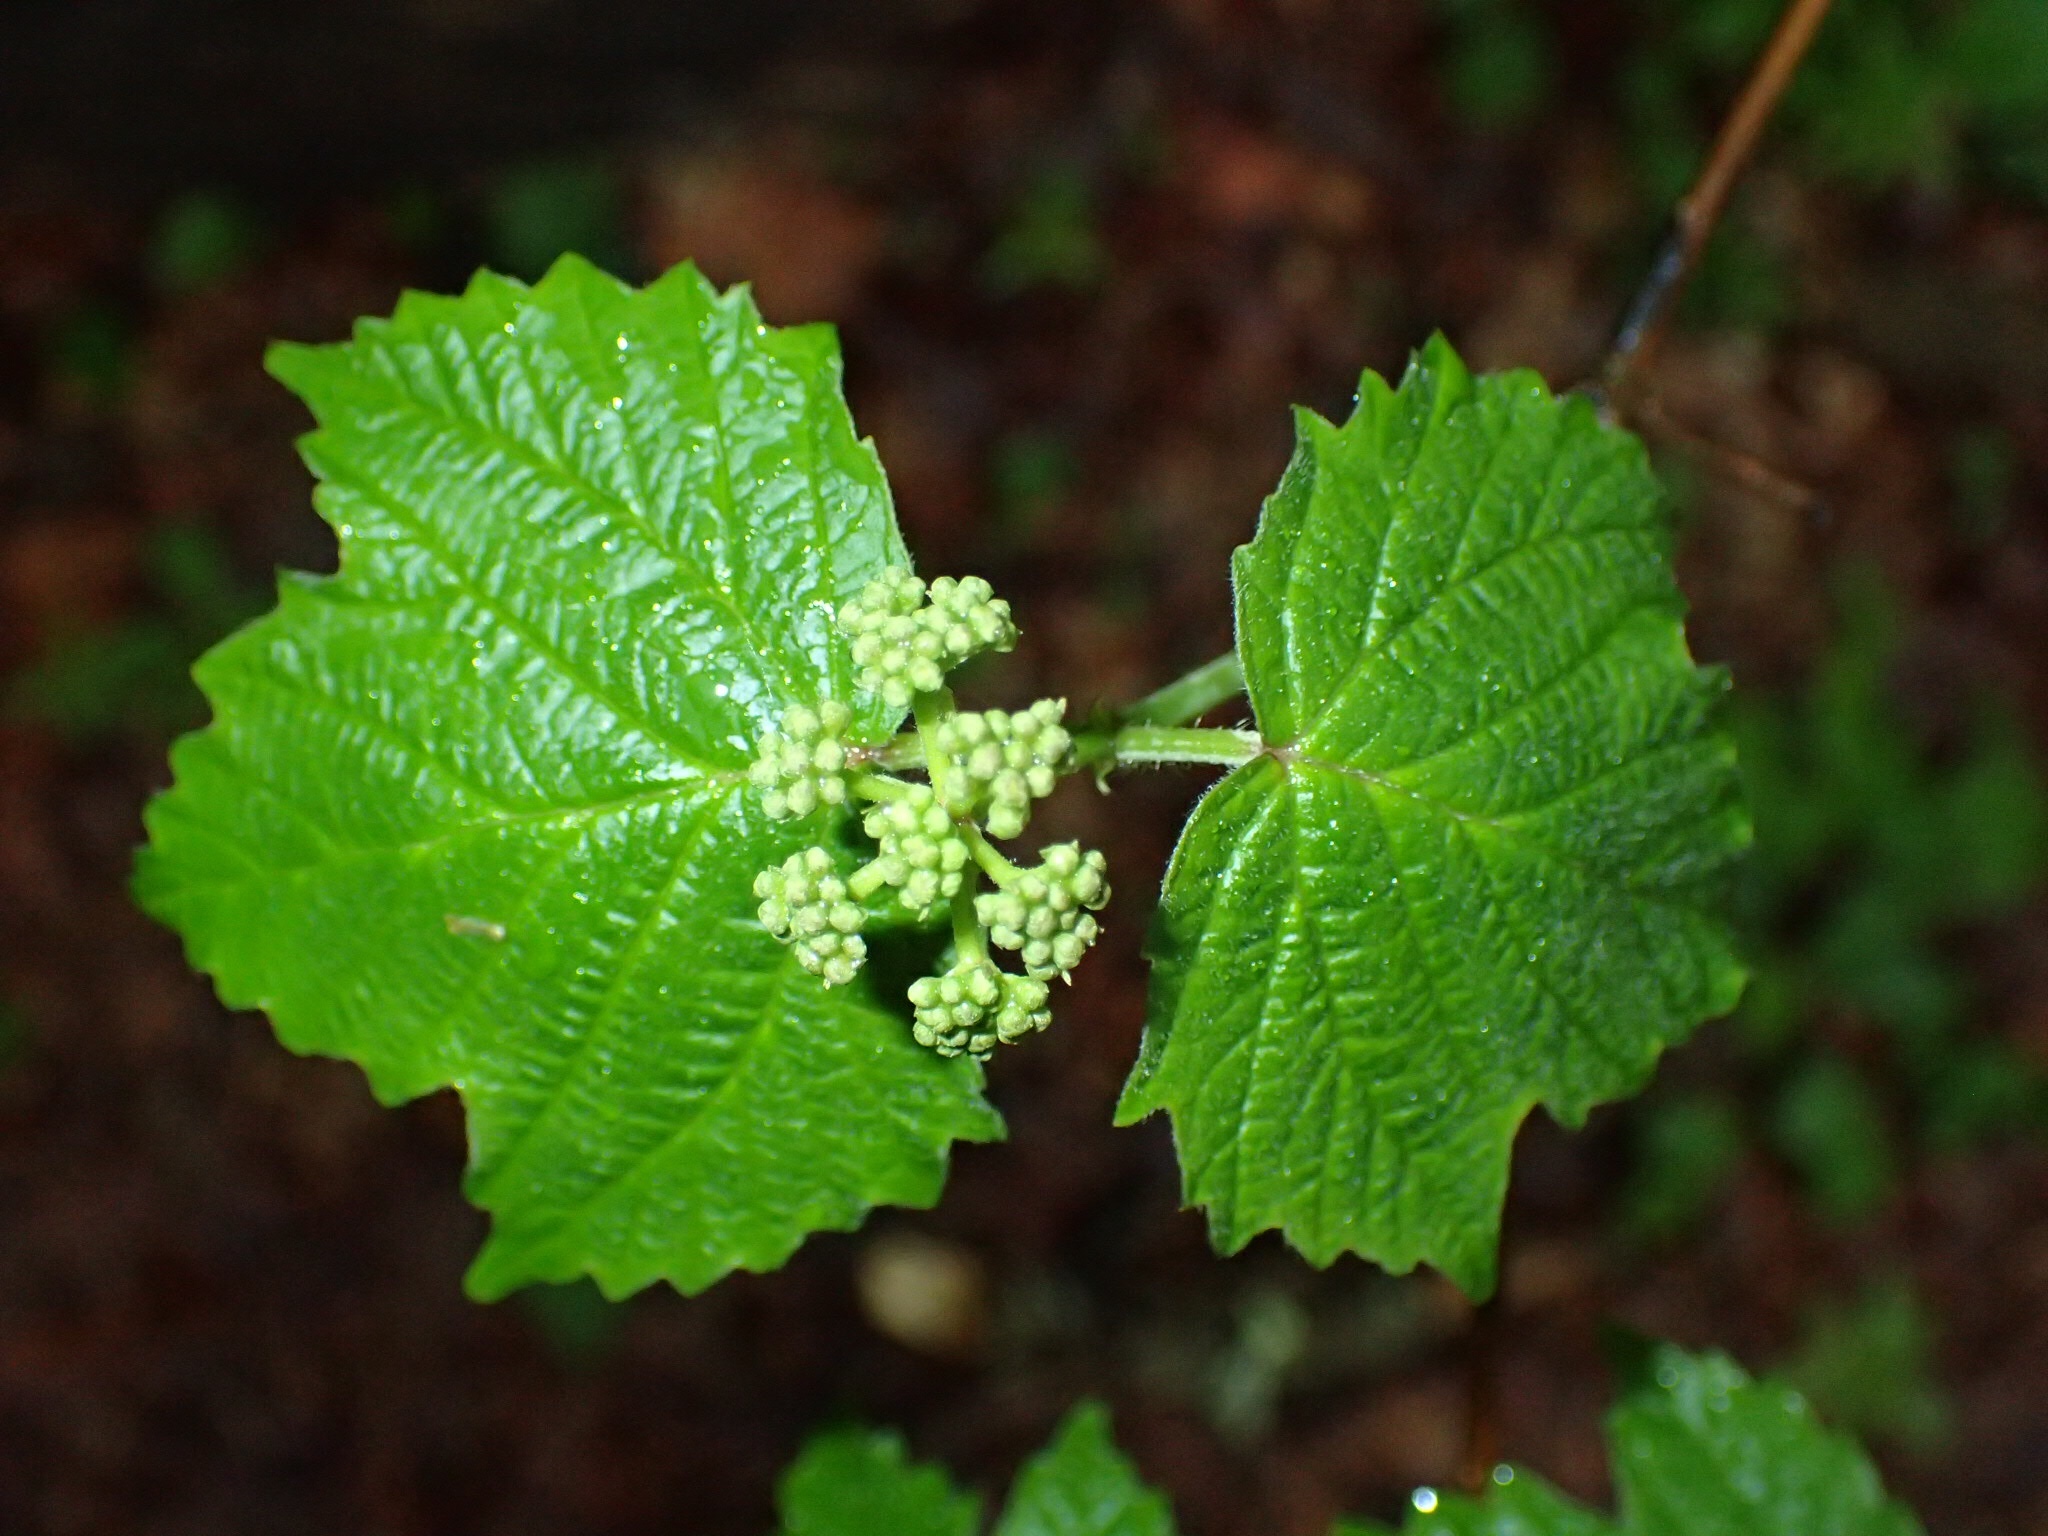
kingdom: Plantae
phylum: Tracheophyta
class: Magnoliopsida
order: Dipsacales
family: Viburnaceae
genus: Viburnum
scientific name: Viburnum acerifolium
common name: Dockmackie
